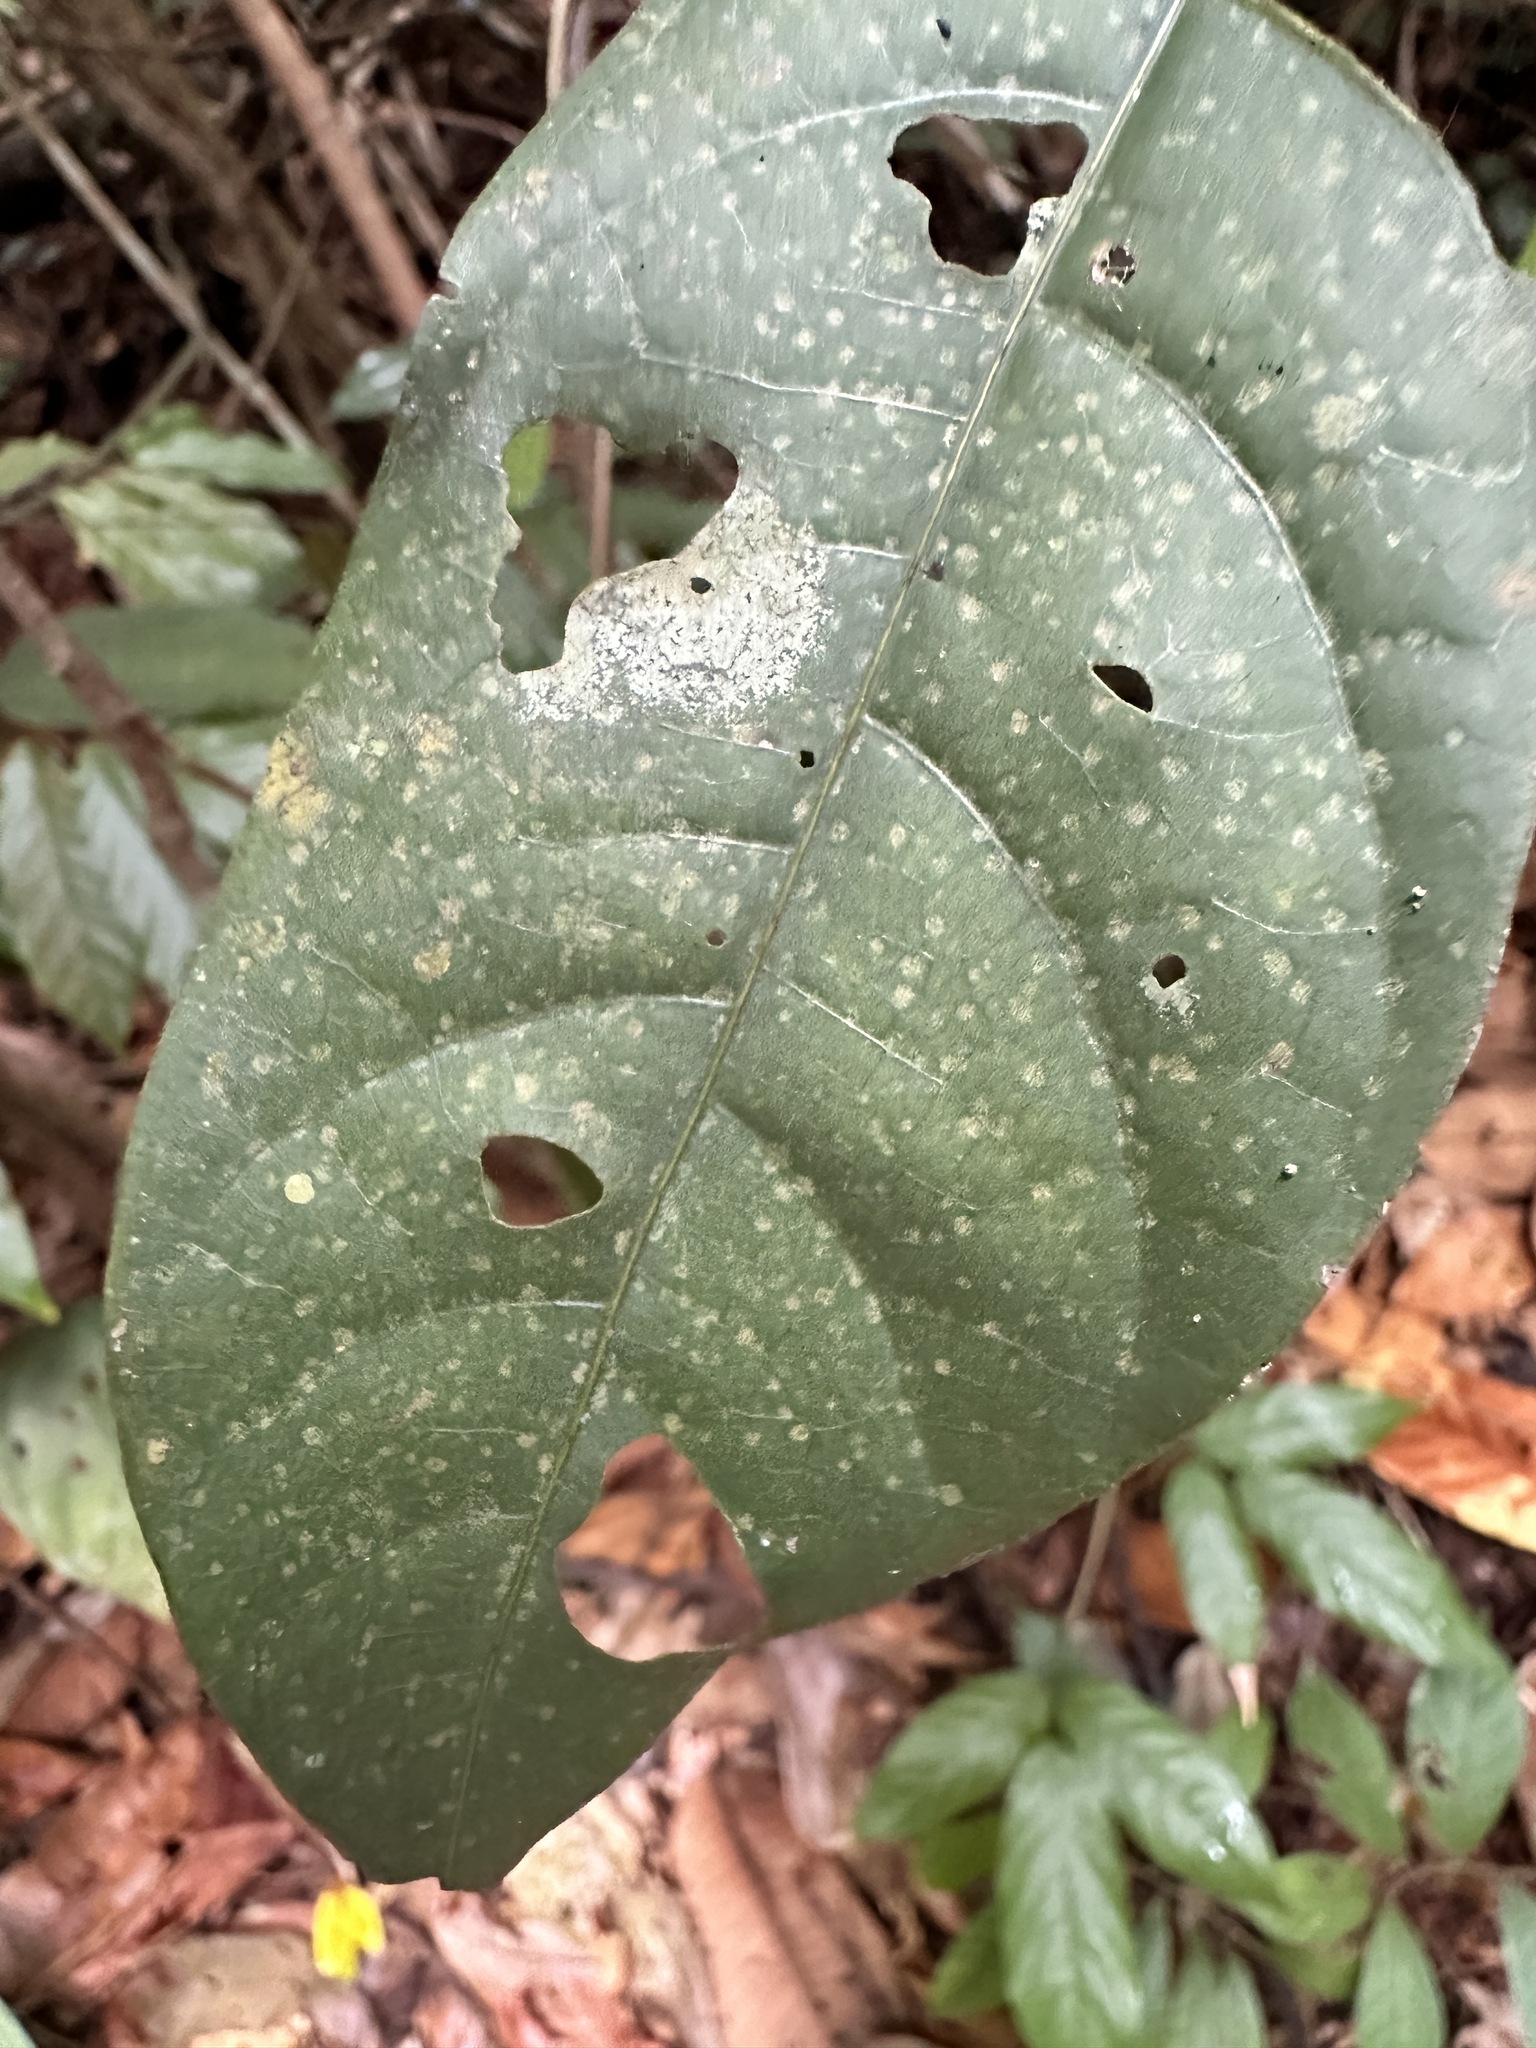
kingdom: Plantae
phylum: Tracheophyta
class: Magnoliopsida
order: Malvales
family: Malvaceae
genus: Scaphium
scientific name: Scaphium affine
